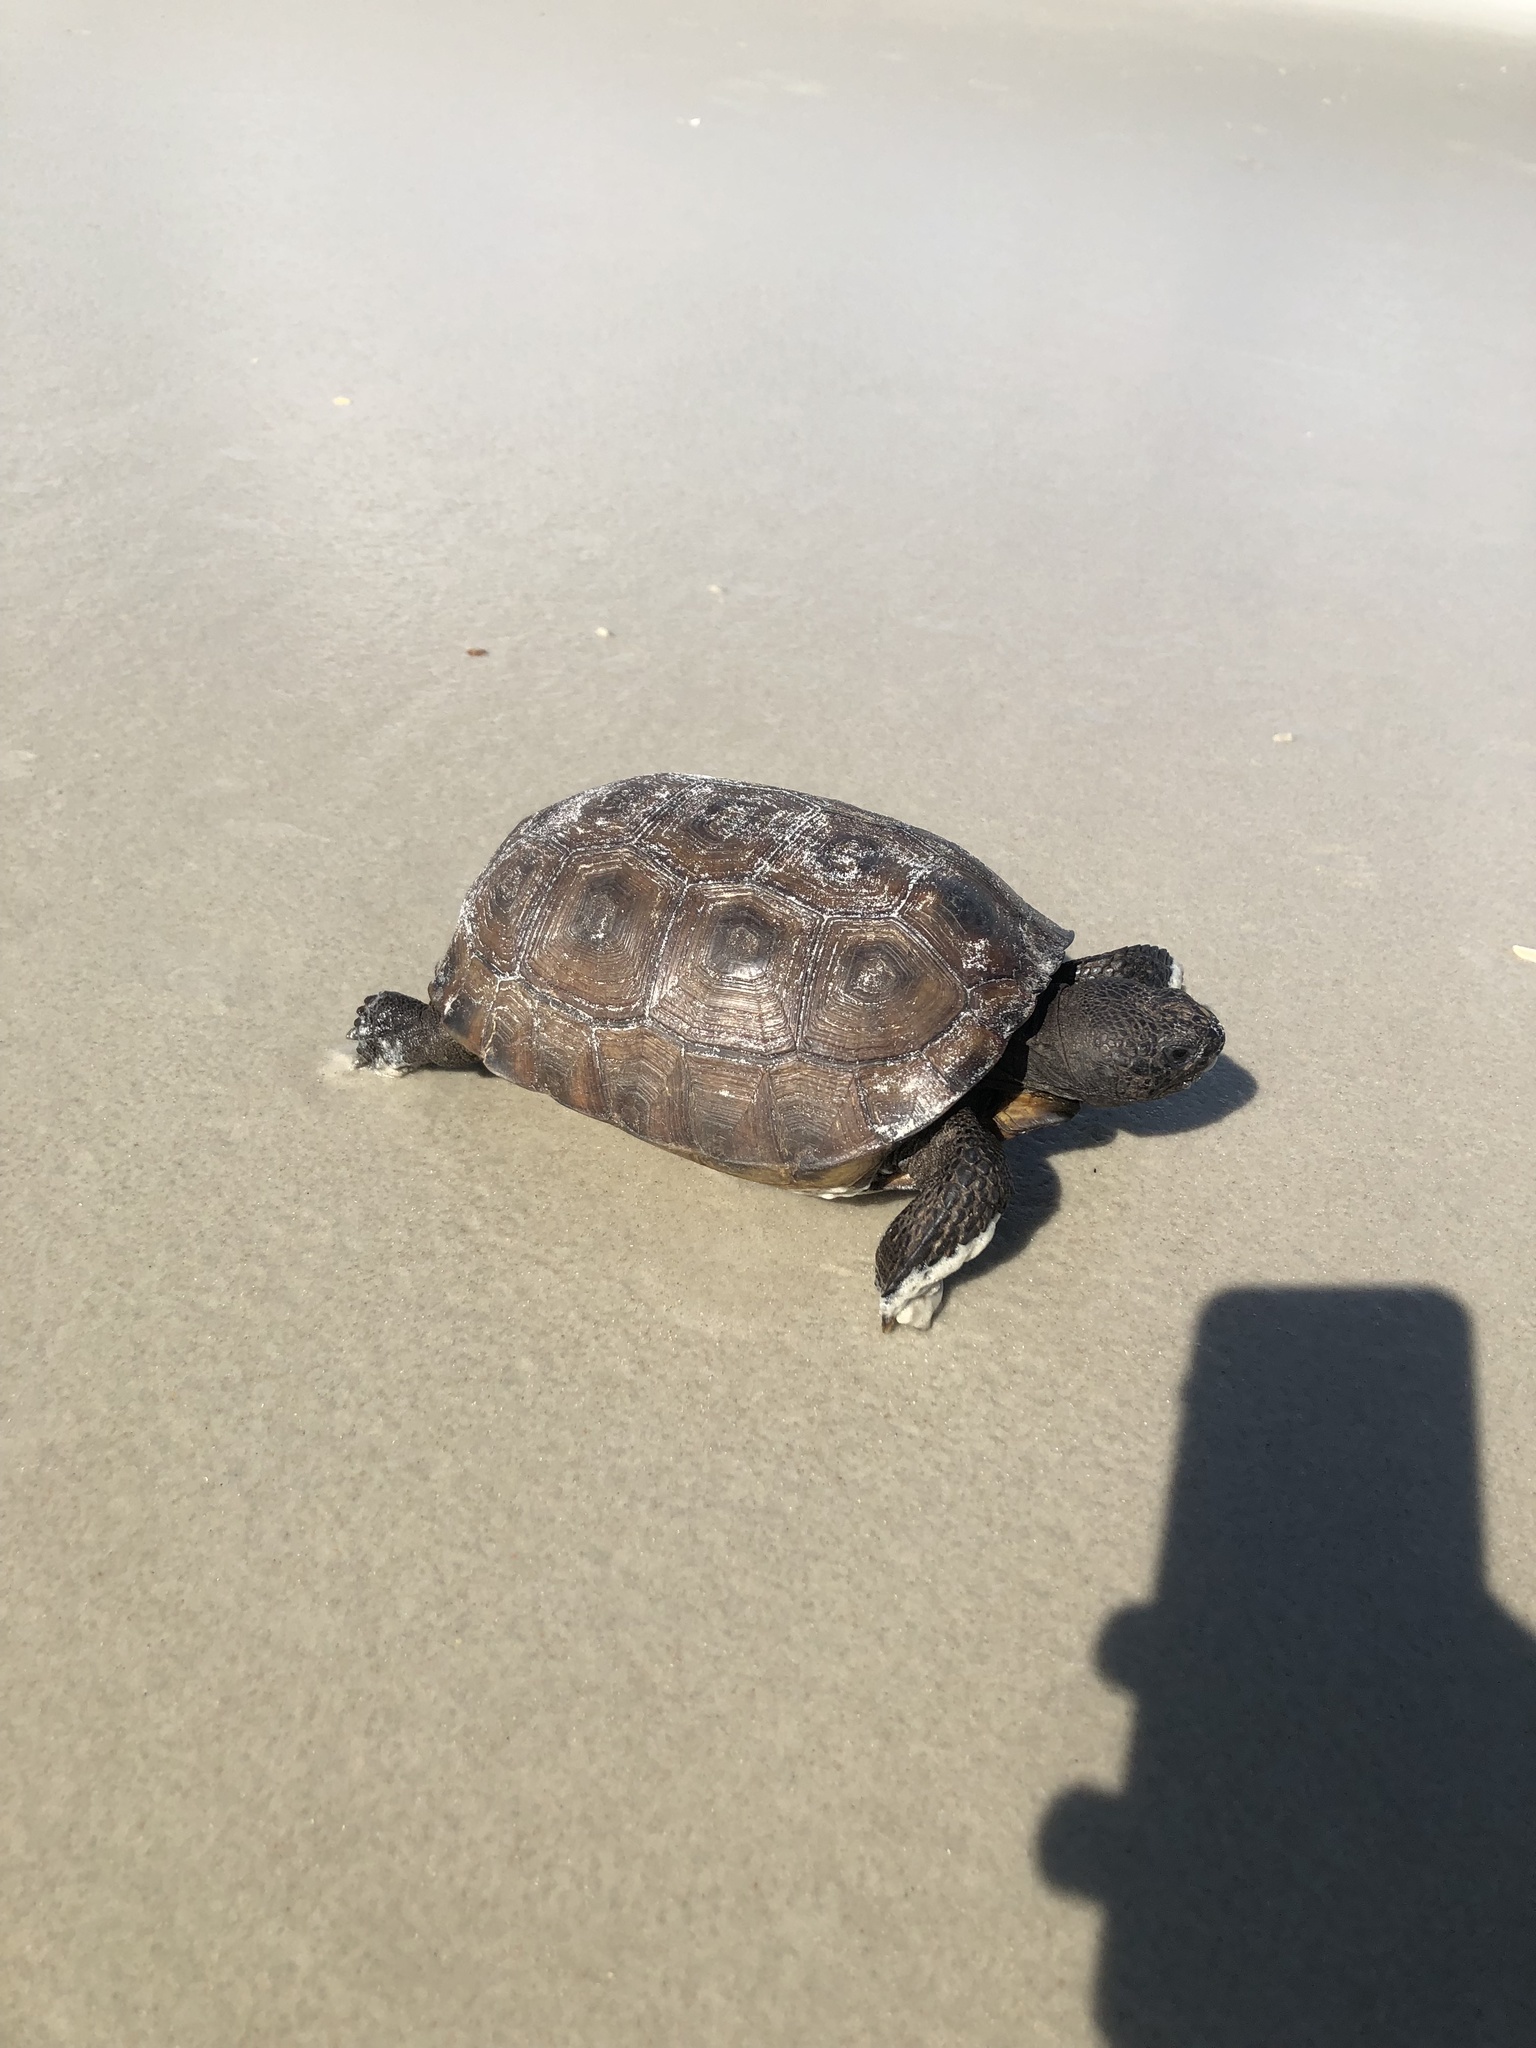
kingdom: Animalia
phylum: Chordata
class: Testudines
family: Testudinidae
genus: Gopherus
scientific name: Gopherus polyphemus
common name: Florida gopher tortoise
